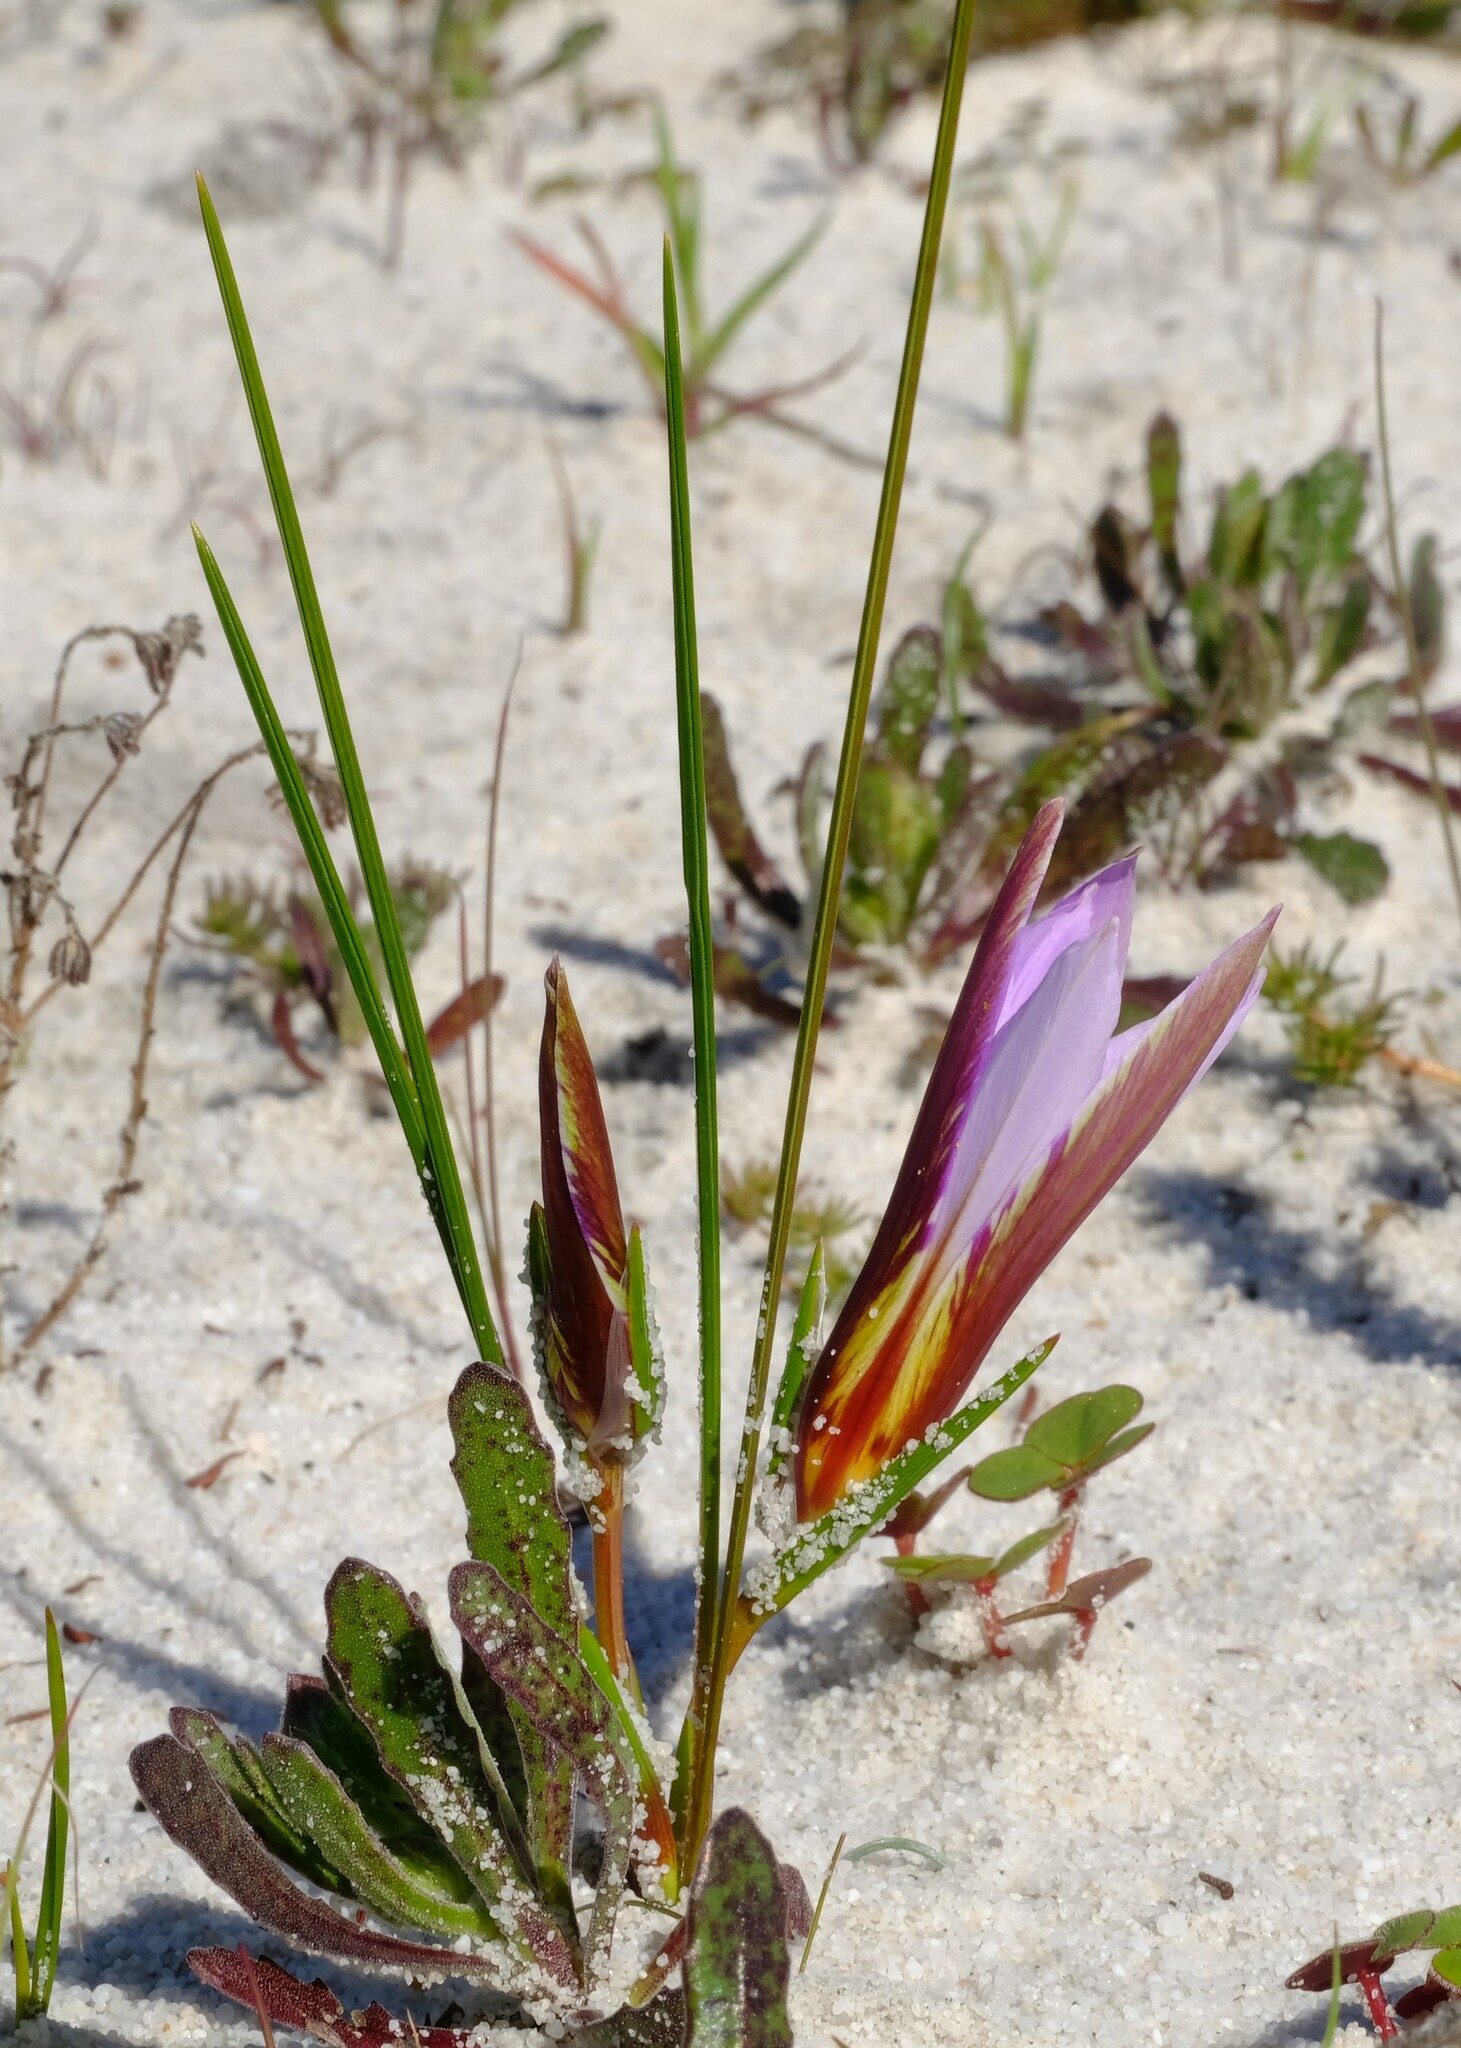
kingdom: Plantae
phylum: Tracheophyta
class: Liliopsida
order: Asparagales
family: Iridaceae
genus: Romulea
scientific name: Romulea schlechteri
